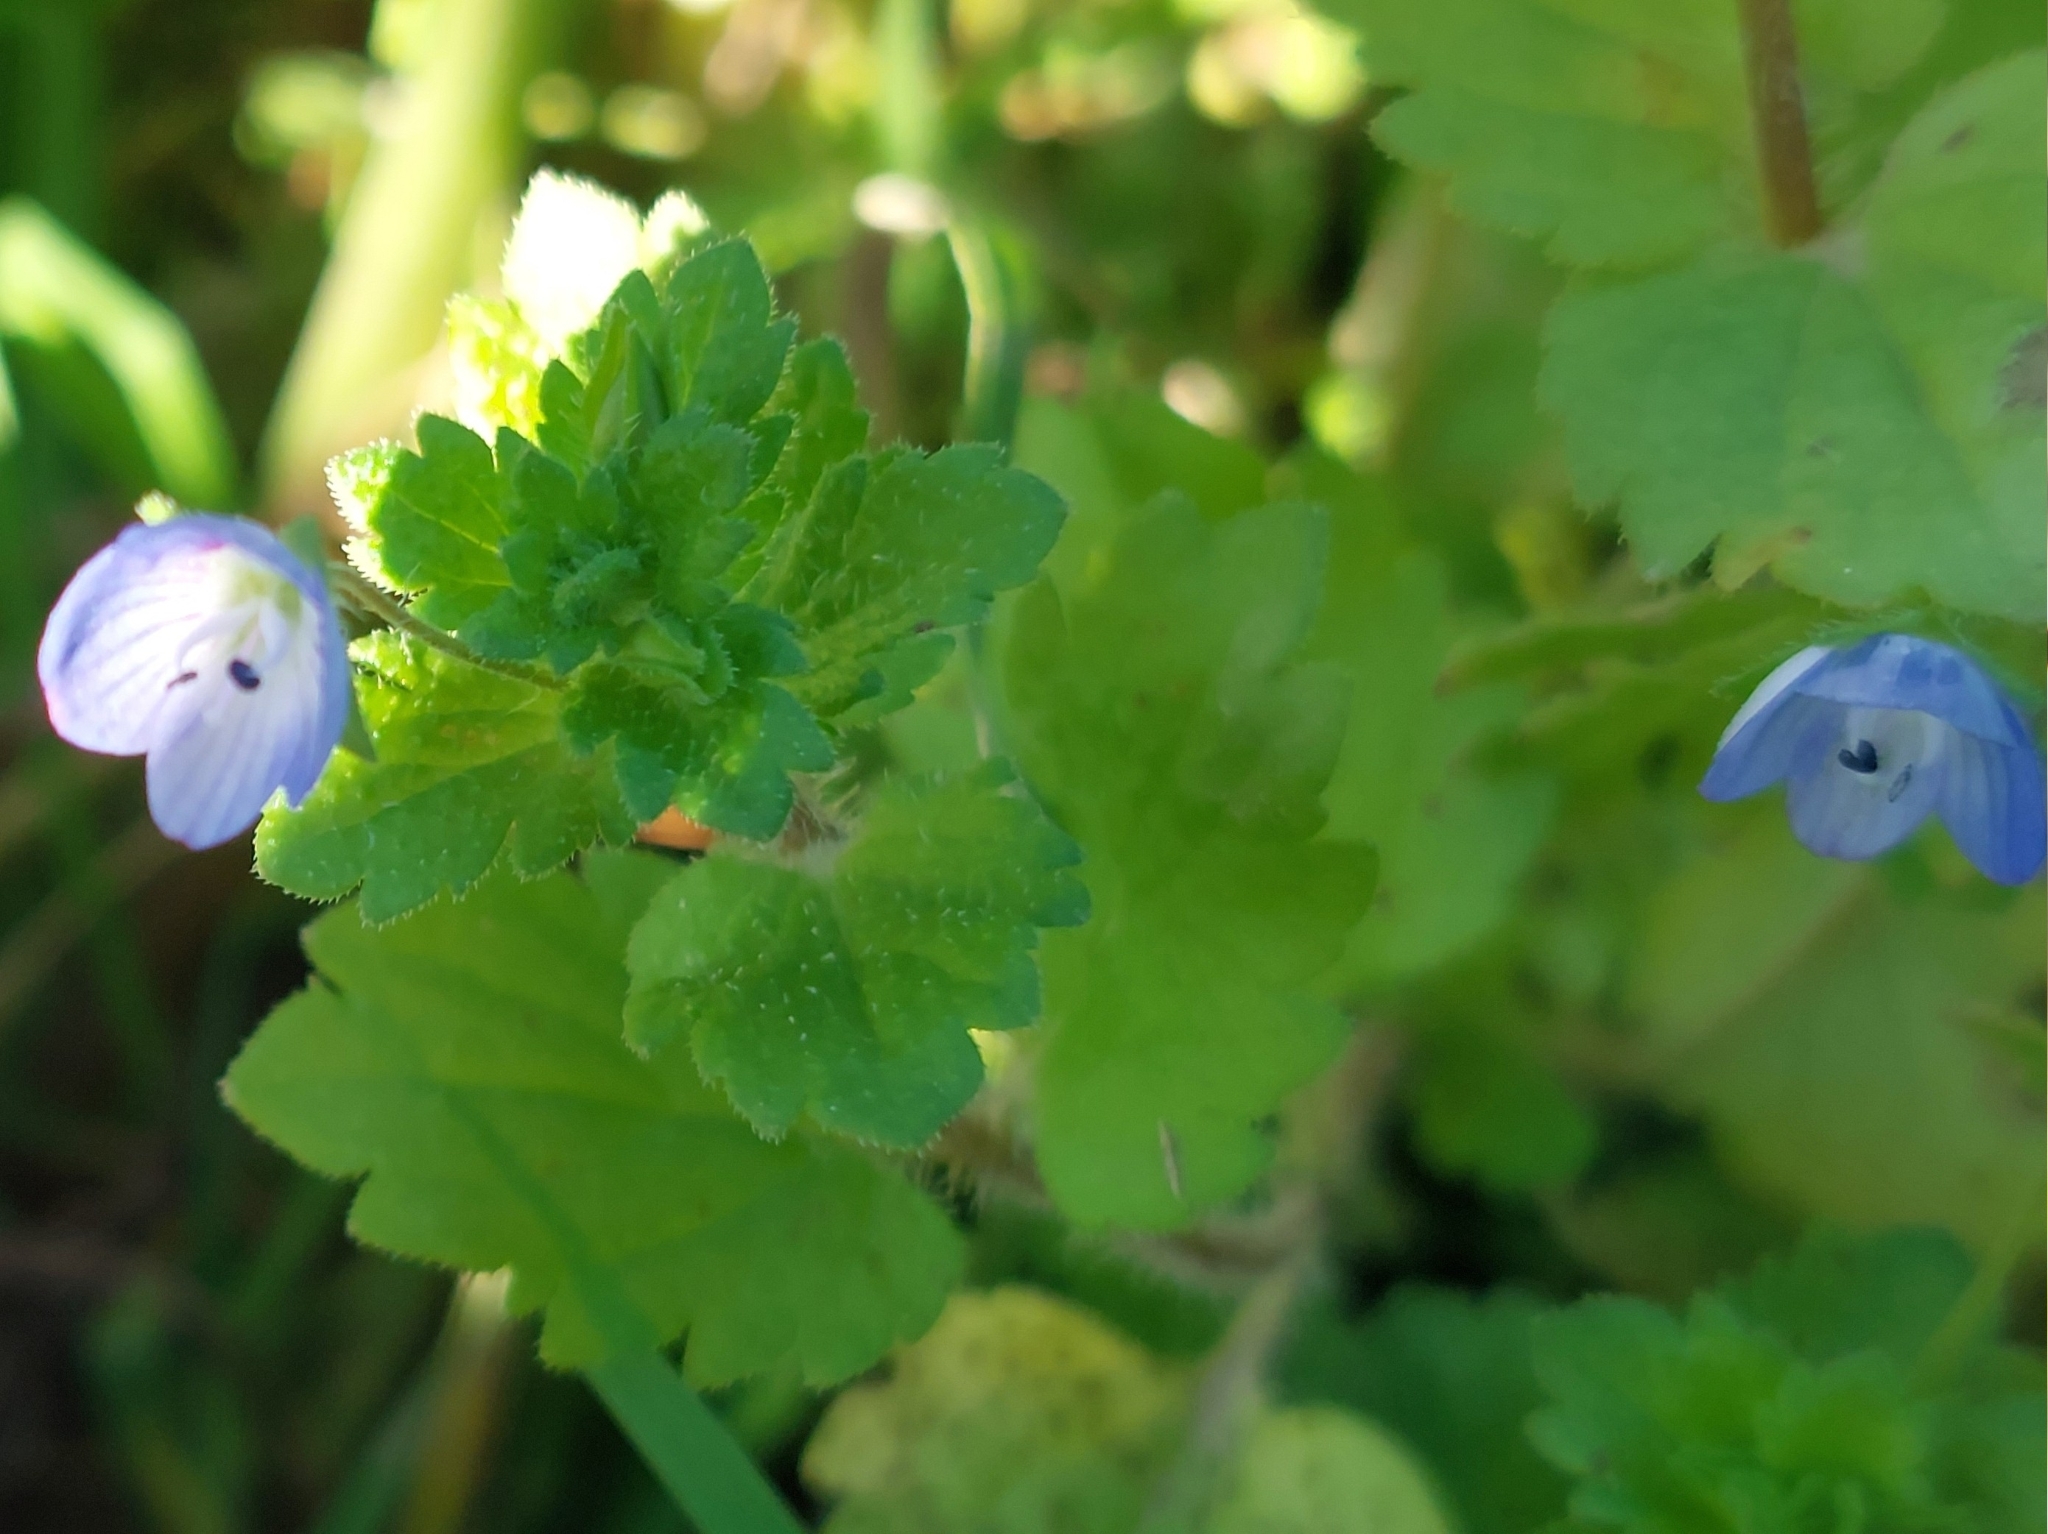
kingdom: Plantae
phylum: Tracheophyta
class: Magnoliopsida
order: Lamiales
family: Plantaginaceae
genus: Veronica
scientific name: Veronica persica
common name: Common field-speedwell
